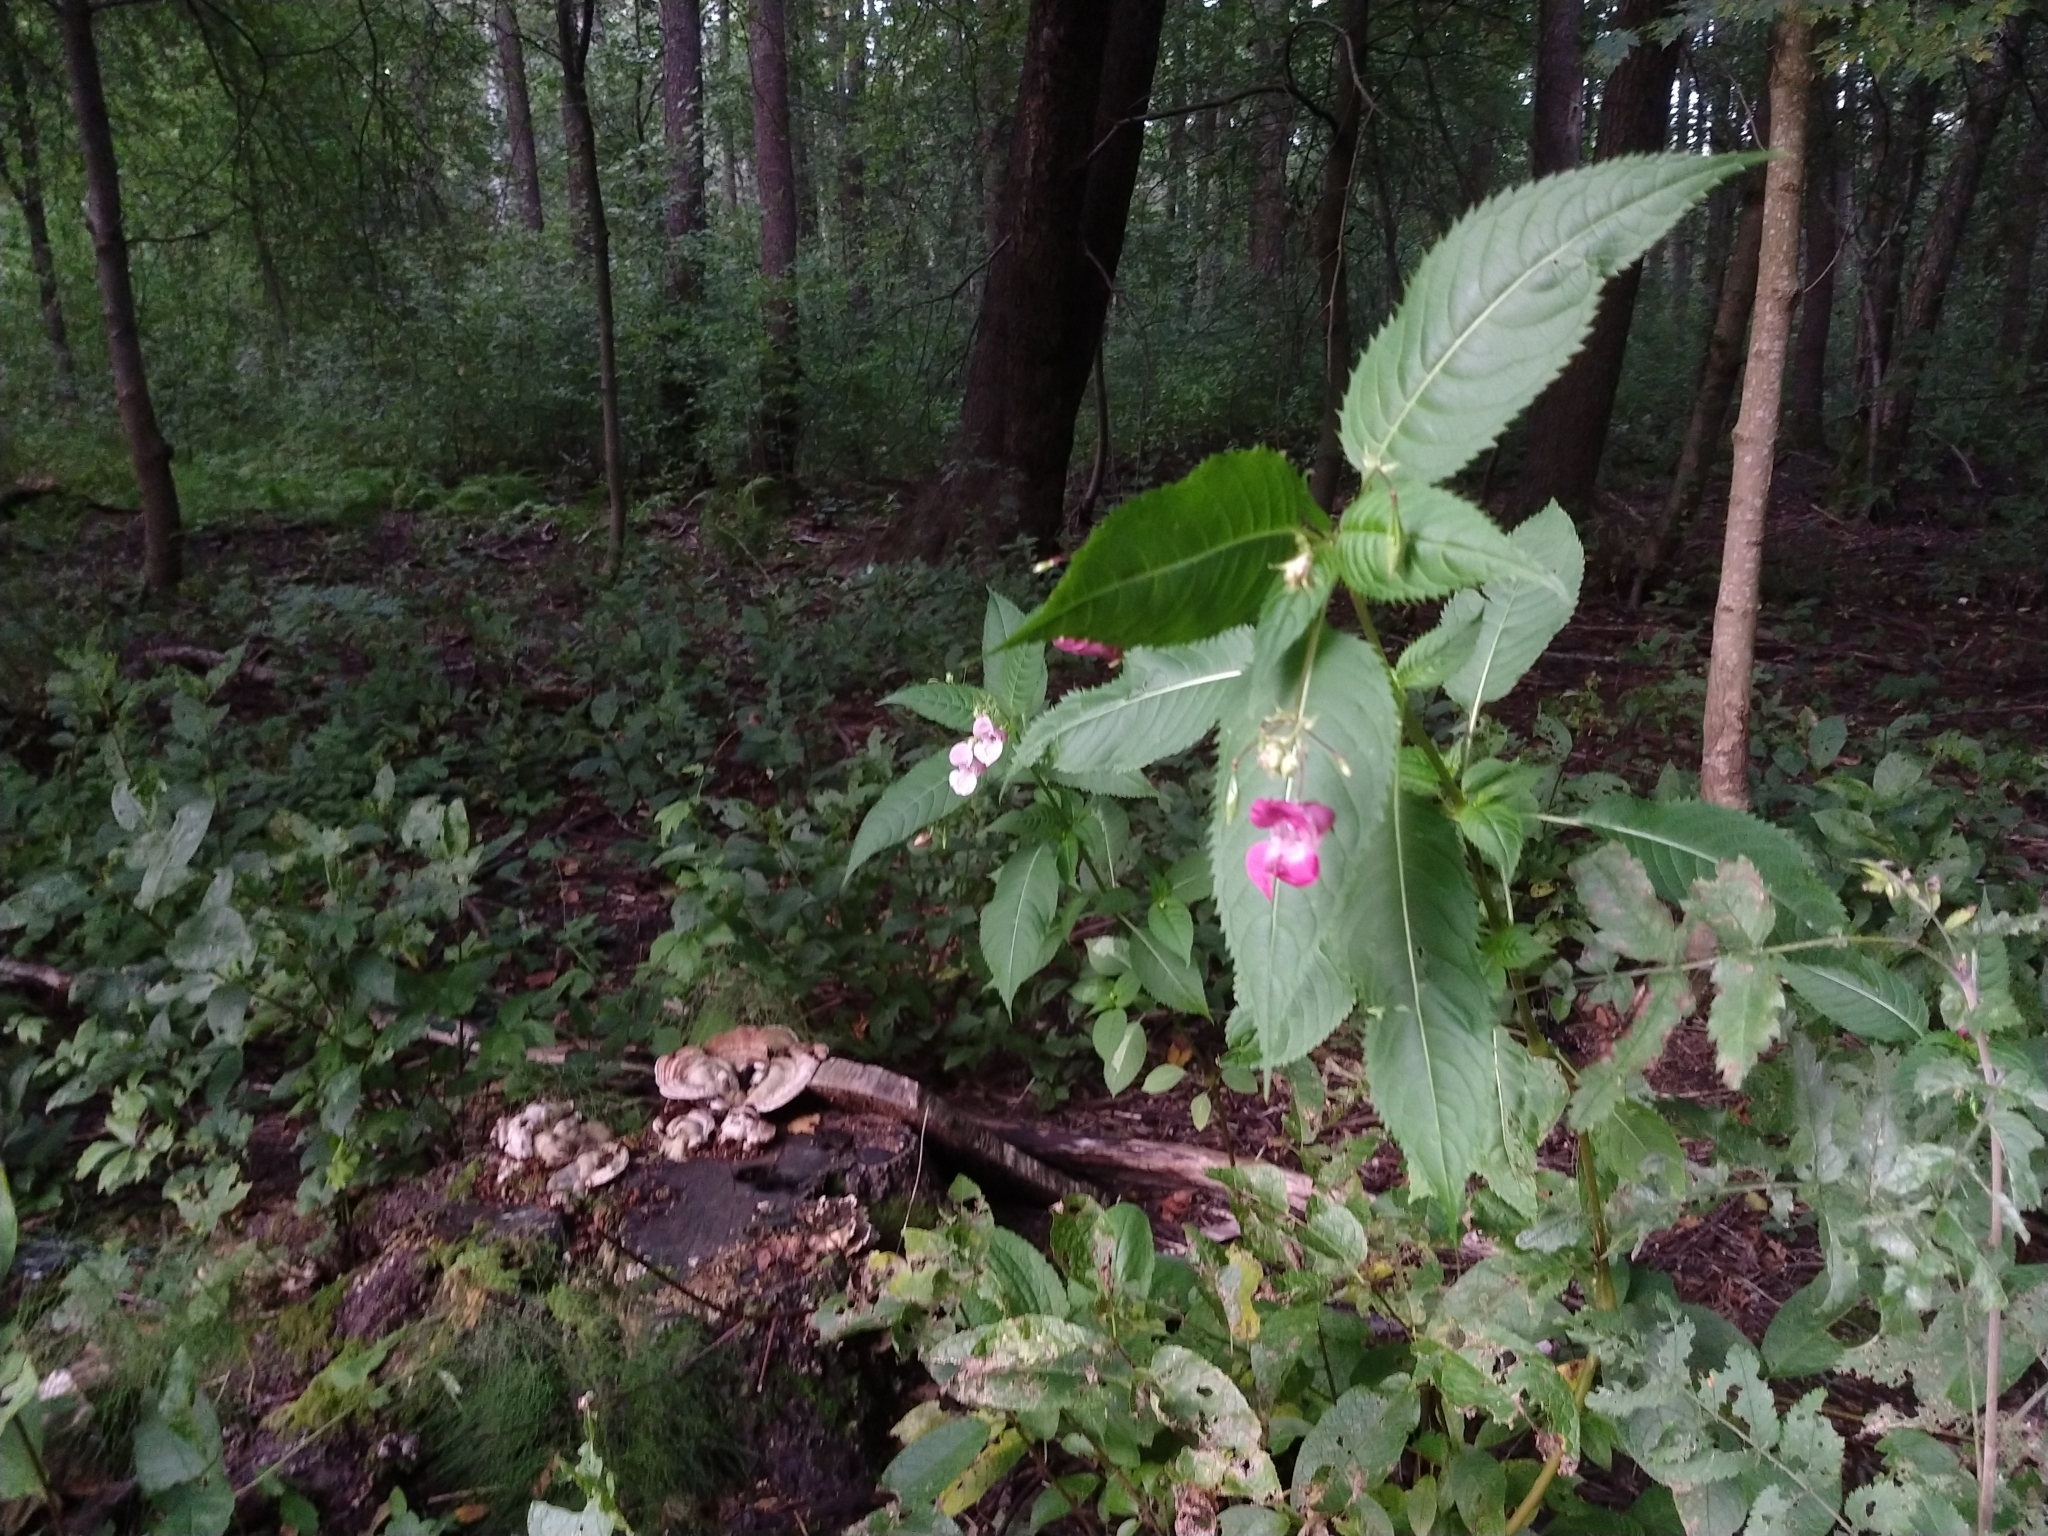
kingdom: Plantae
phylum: Tracheophyta
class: Magnoliopsida
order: Ericales
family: Balsaminaceae
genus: Impatiens
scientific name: Impatiens glandulifera
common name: Himalayan balsam
